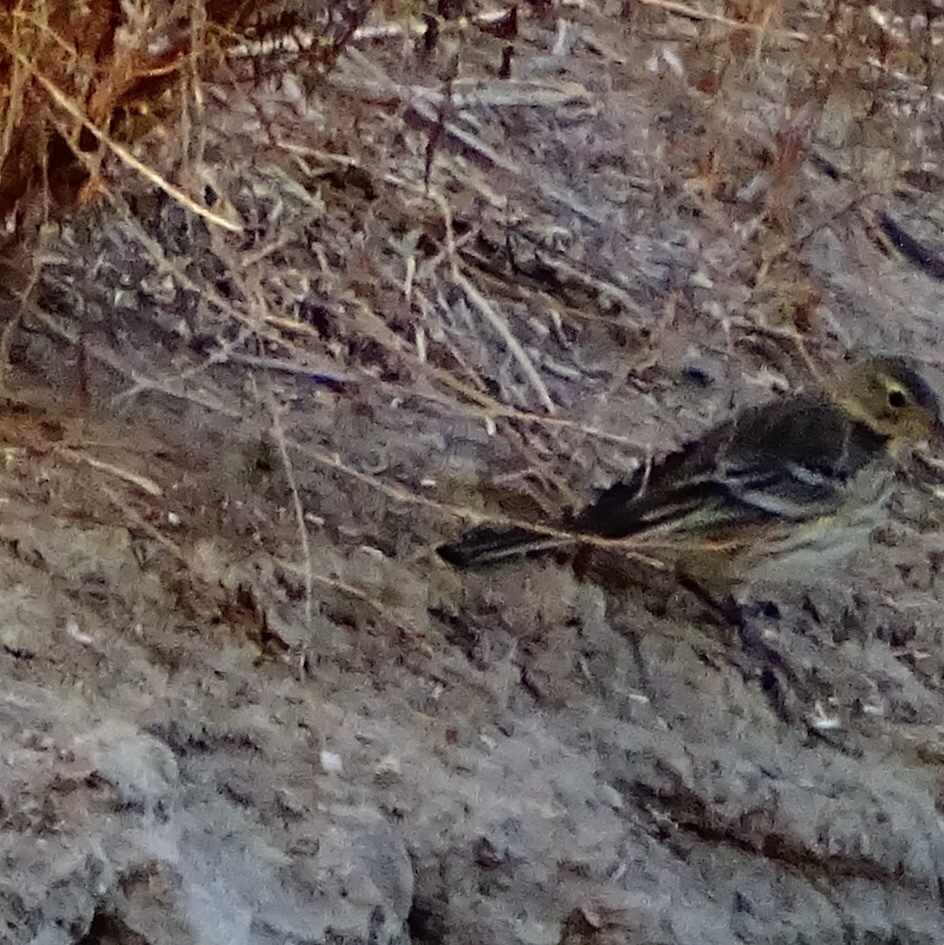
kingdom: Animalia
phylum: Chordata
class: Aves
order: Passeriformes
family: Motacillidae
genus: Anthus
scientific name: Anthus rubescens
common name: Buff-bellied pipit
